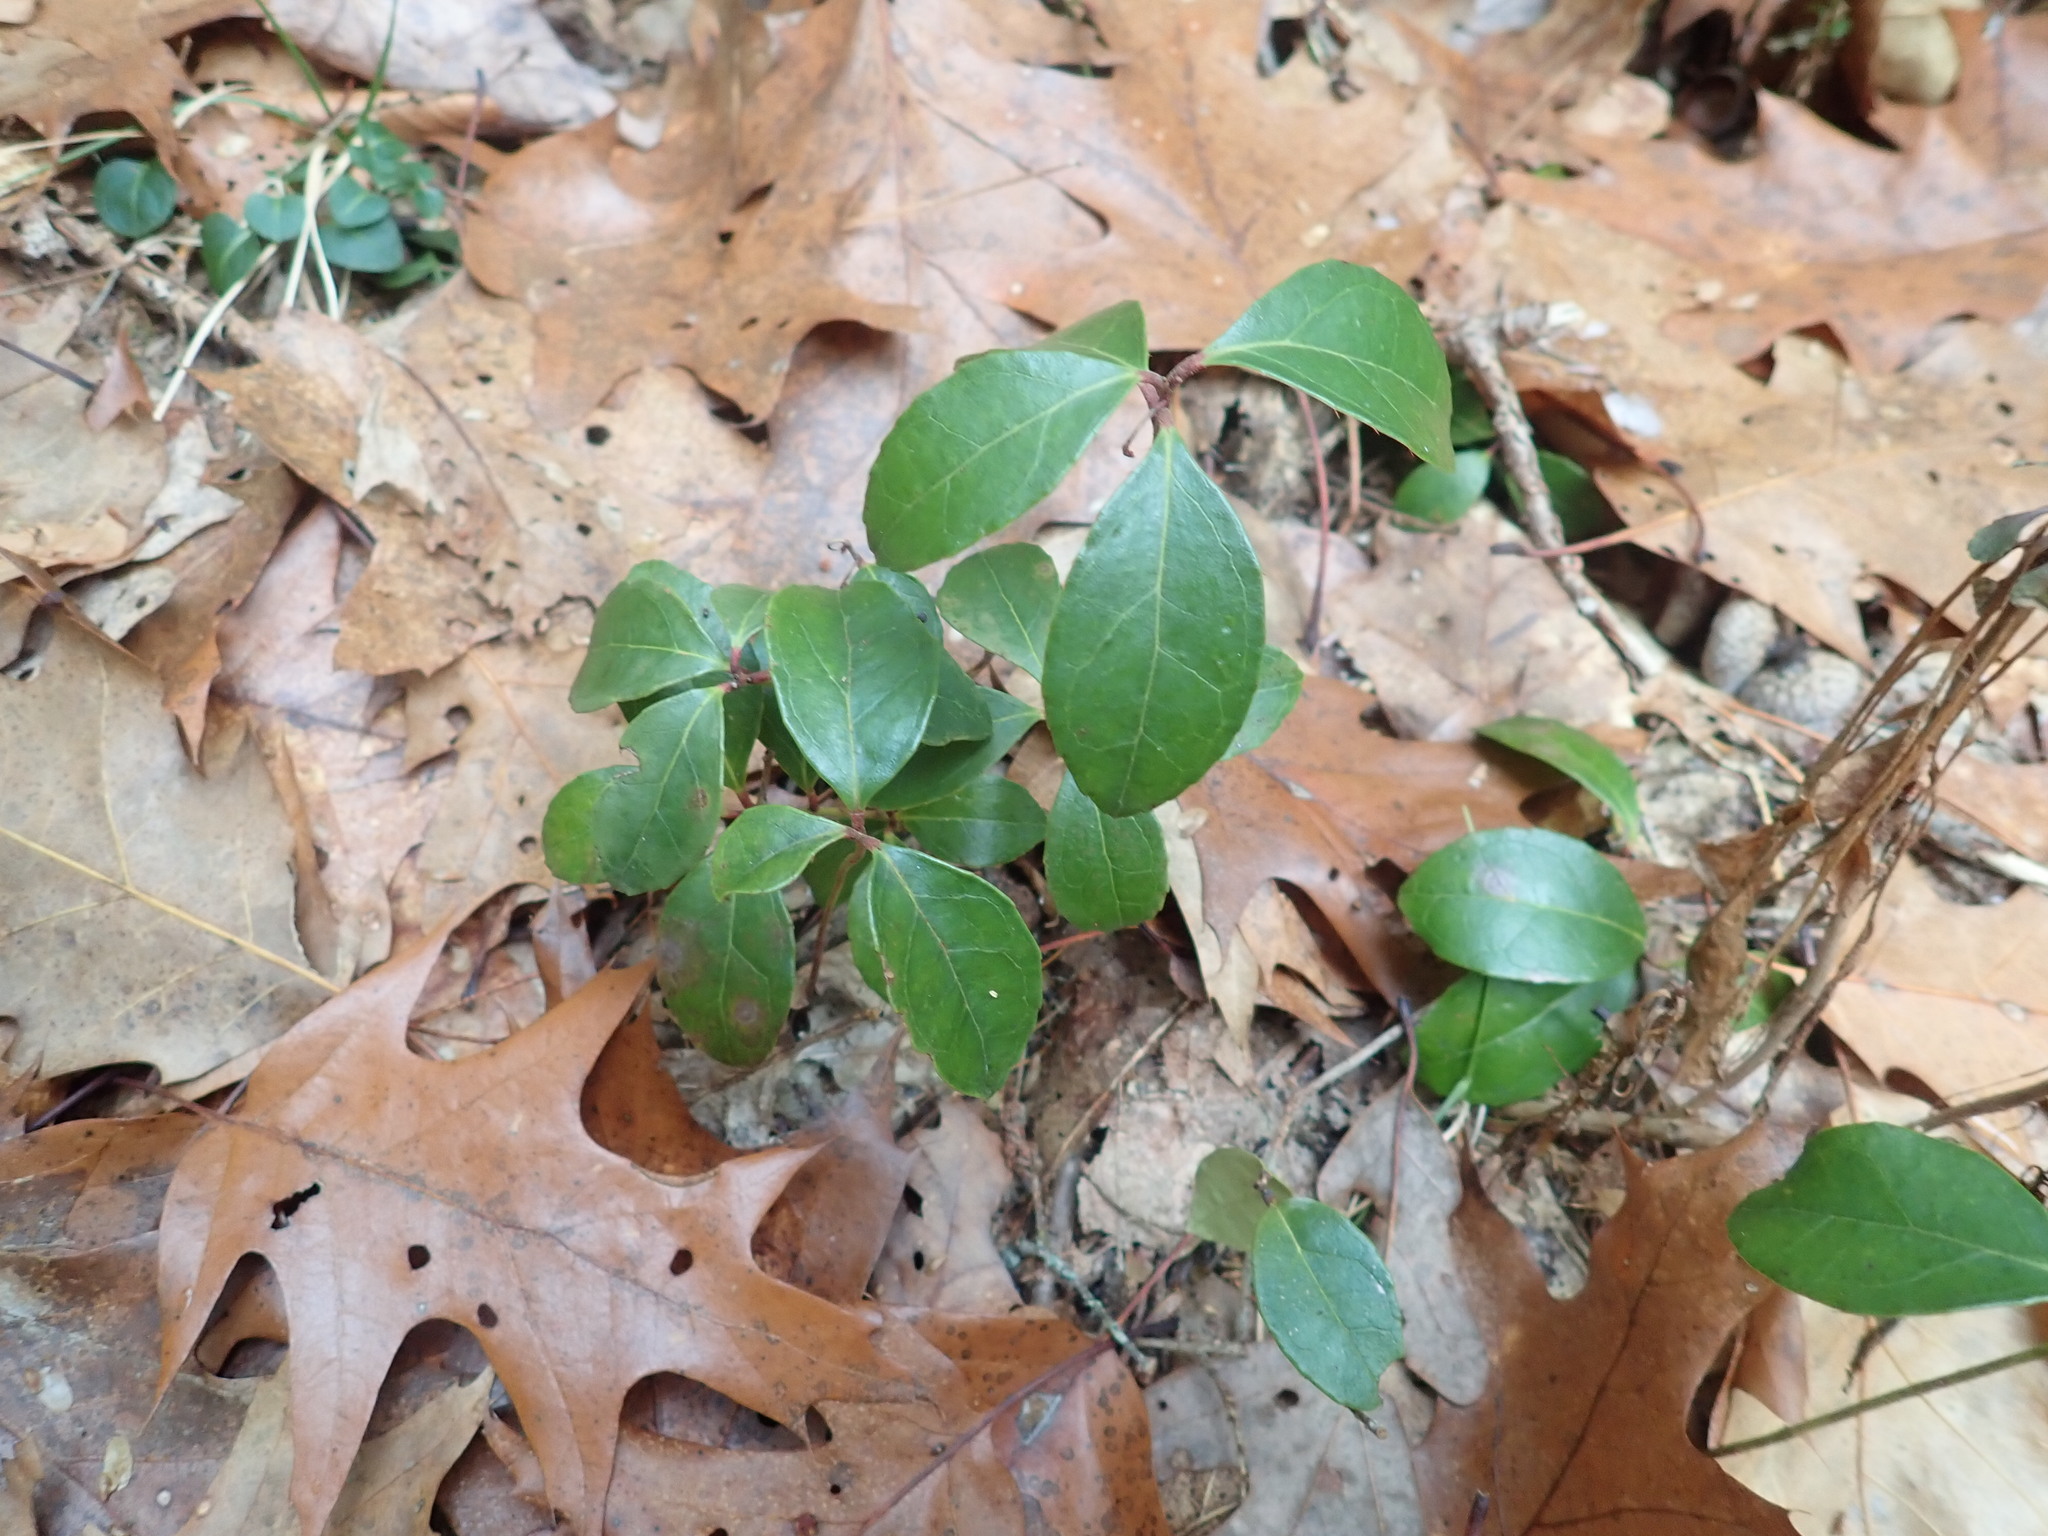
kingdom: Plantae
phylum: Tracheophyta
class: Magnoliopsida
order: Ericales
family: Ericaceae
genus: Gaultheria
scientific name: Gaultheria procumbens
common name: Checkerberry
